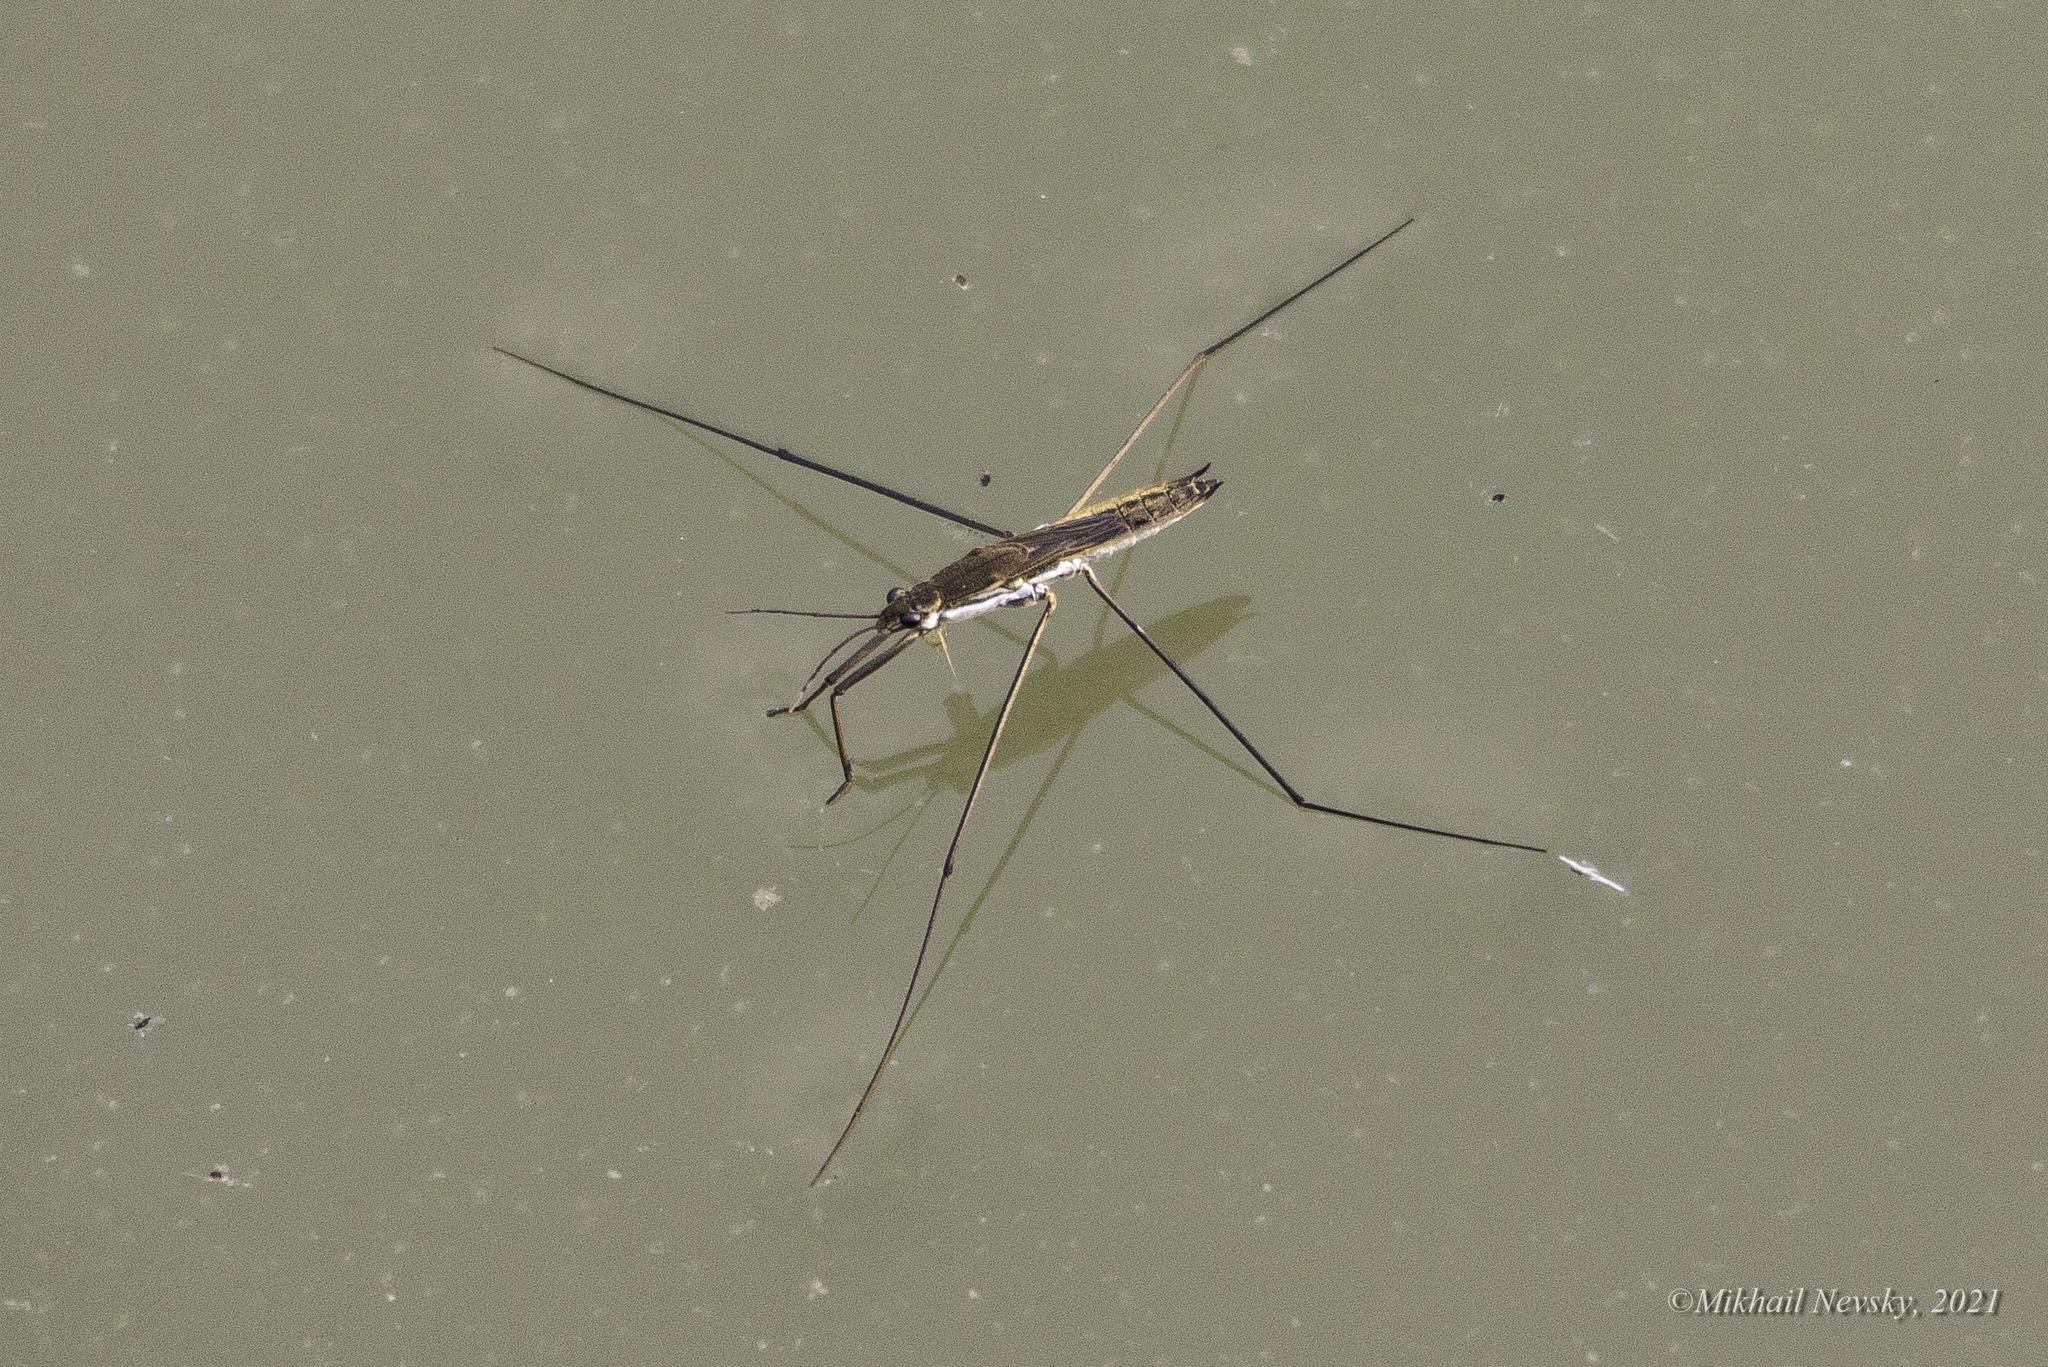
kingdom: Animalia
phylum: Arthropoda
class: Insecta
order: Hemiptera
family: Gerridae
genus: Aquarius
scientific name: Aquarius paludum
